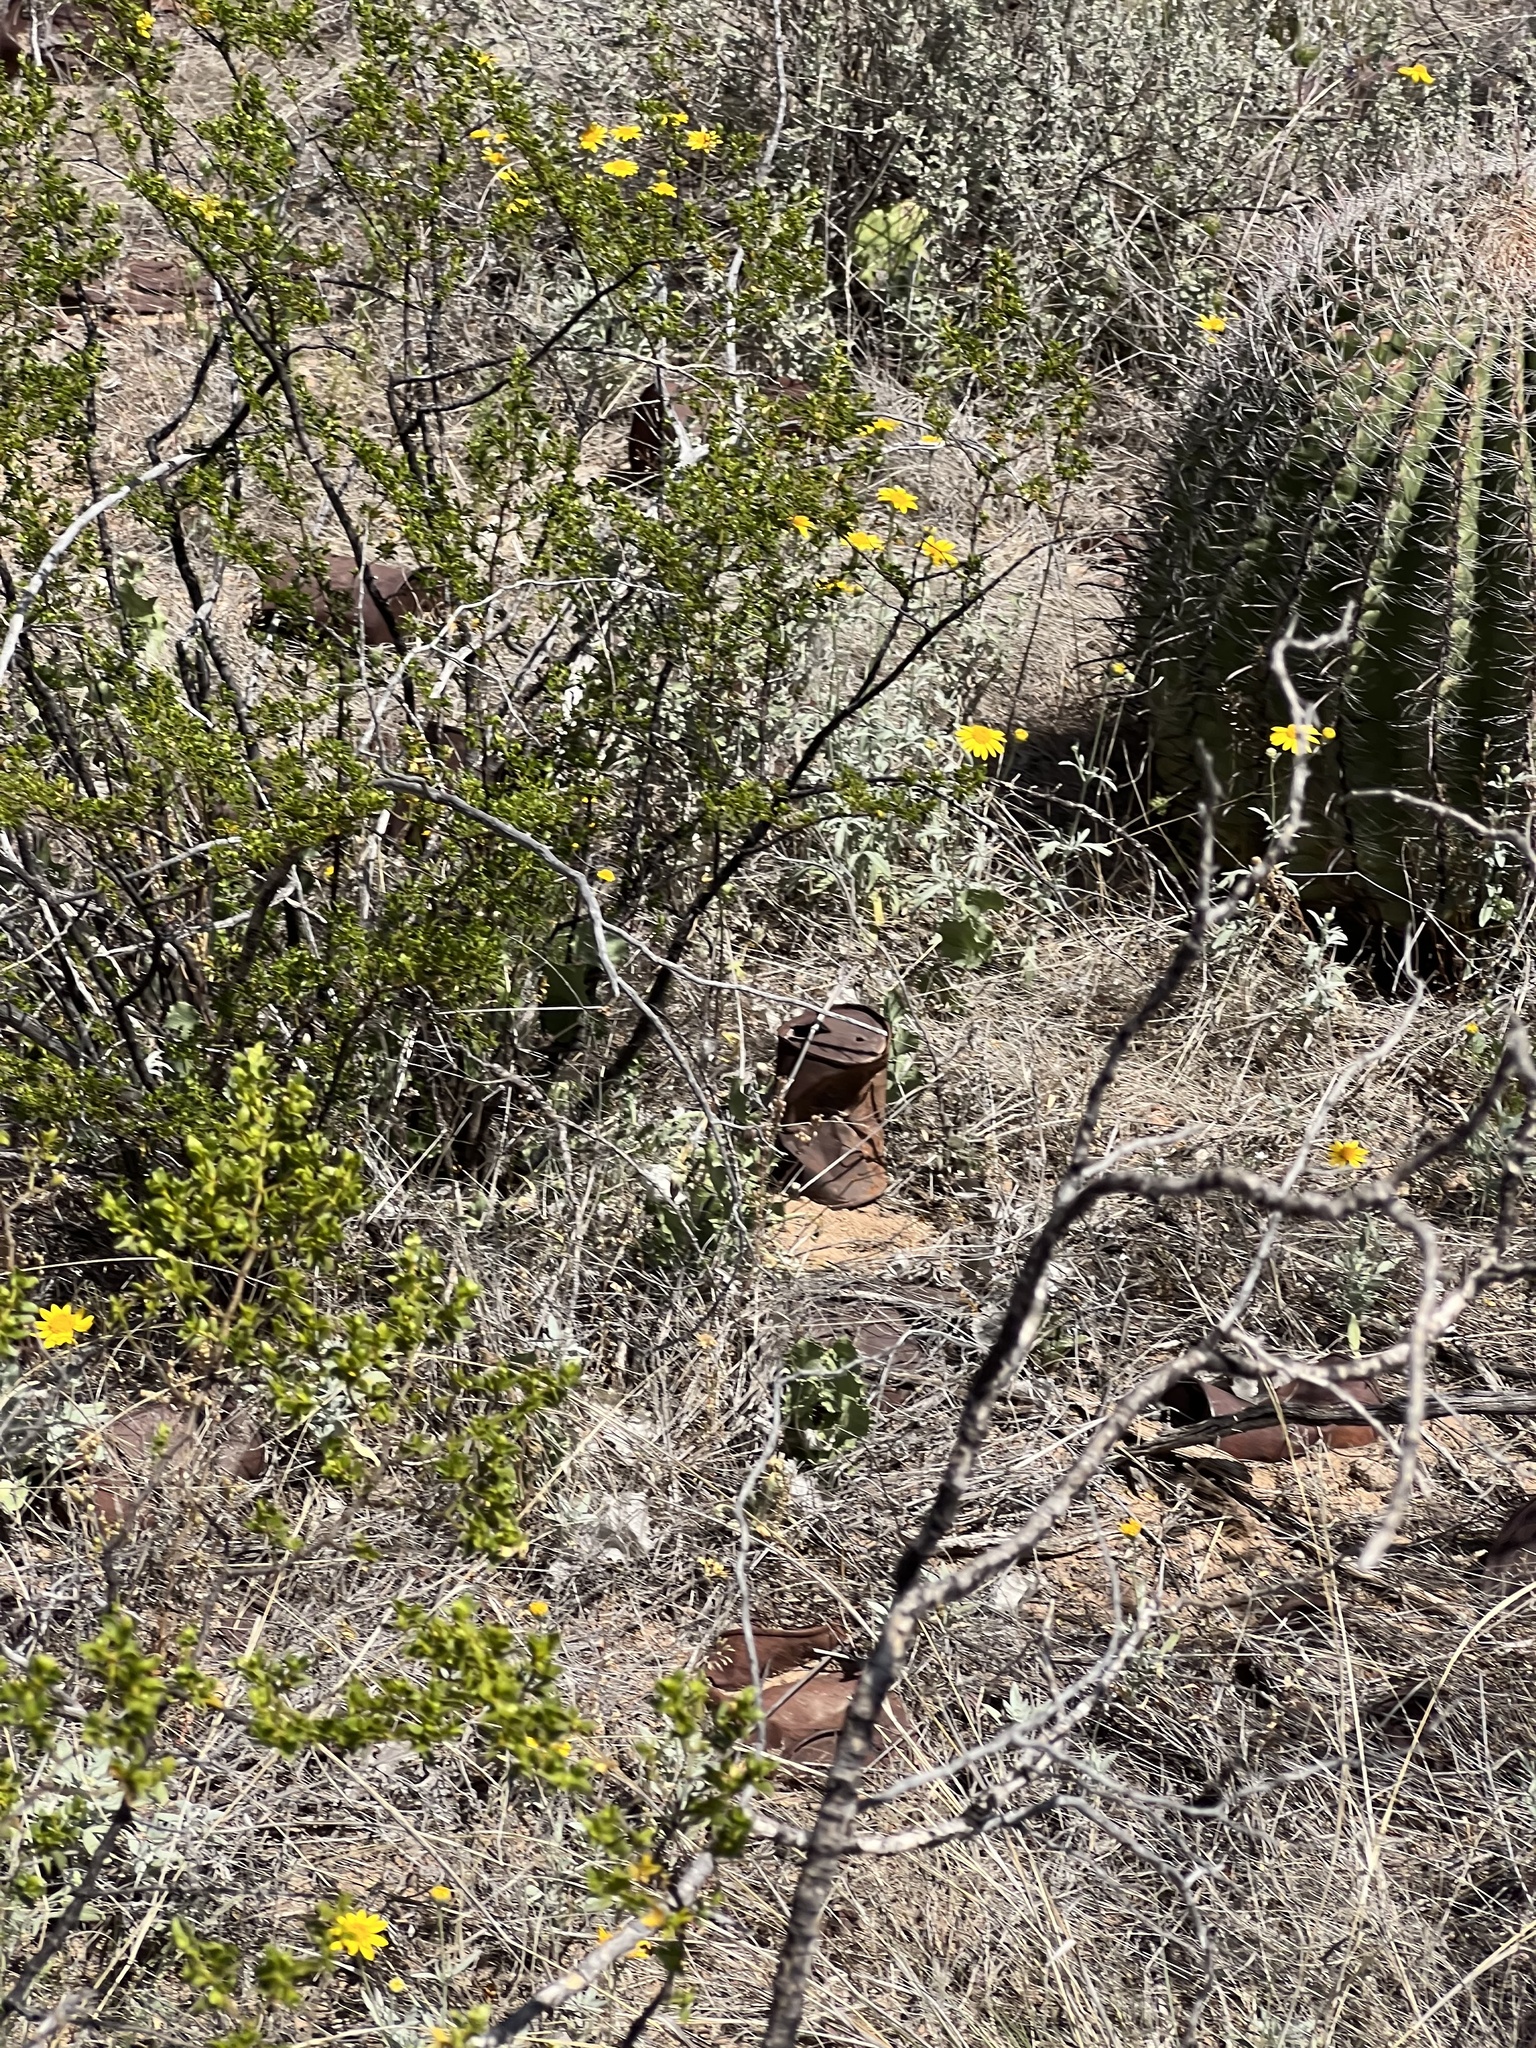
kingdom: Plantae
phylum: Tracheophyta
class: Magnoliopsida
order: Zygophyllales
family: Zygophyllaceae
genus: Larrea
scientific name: Larrea tridentata
